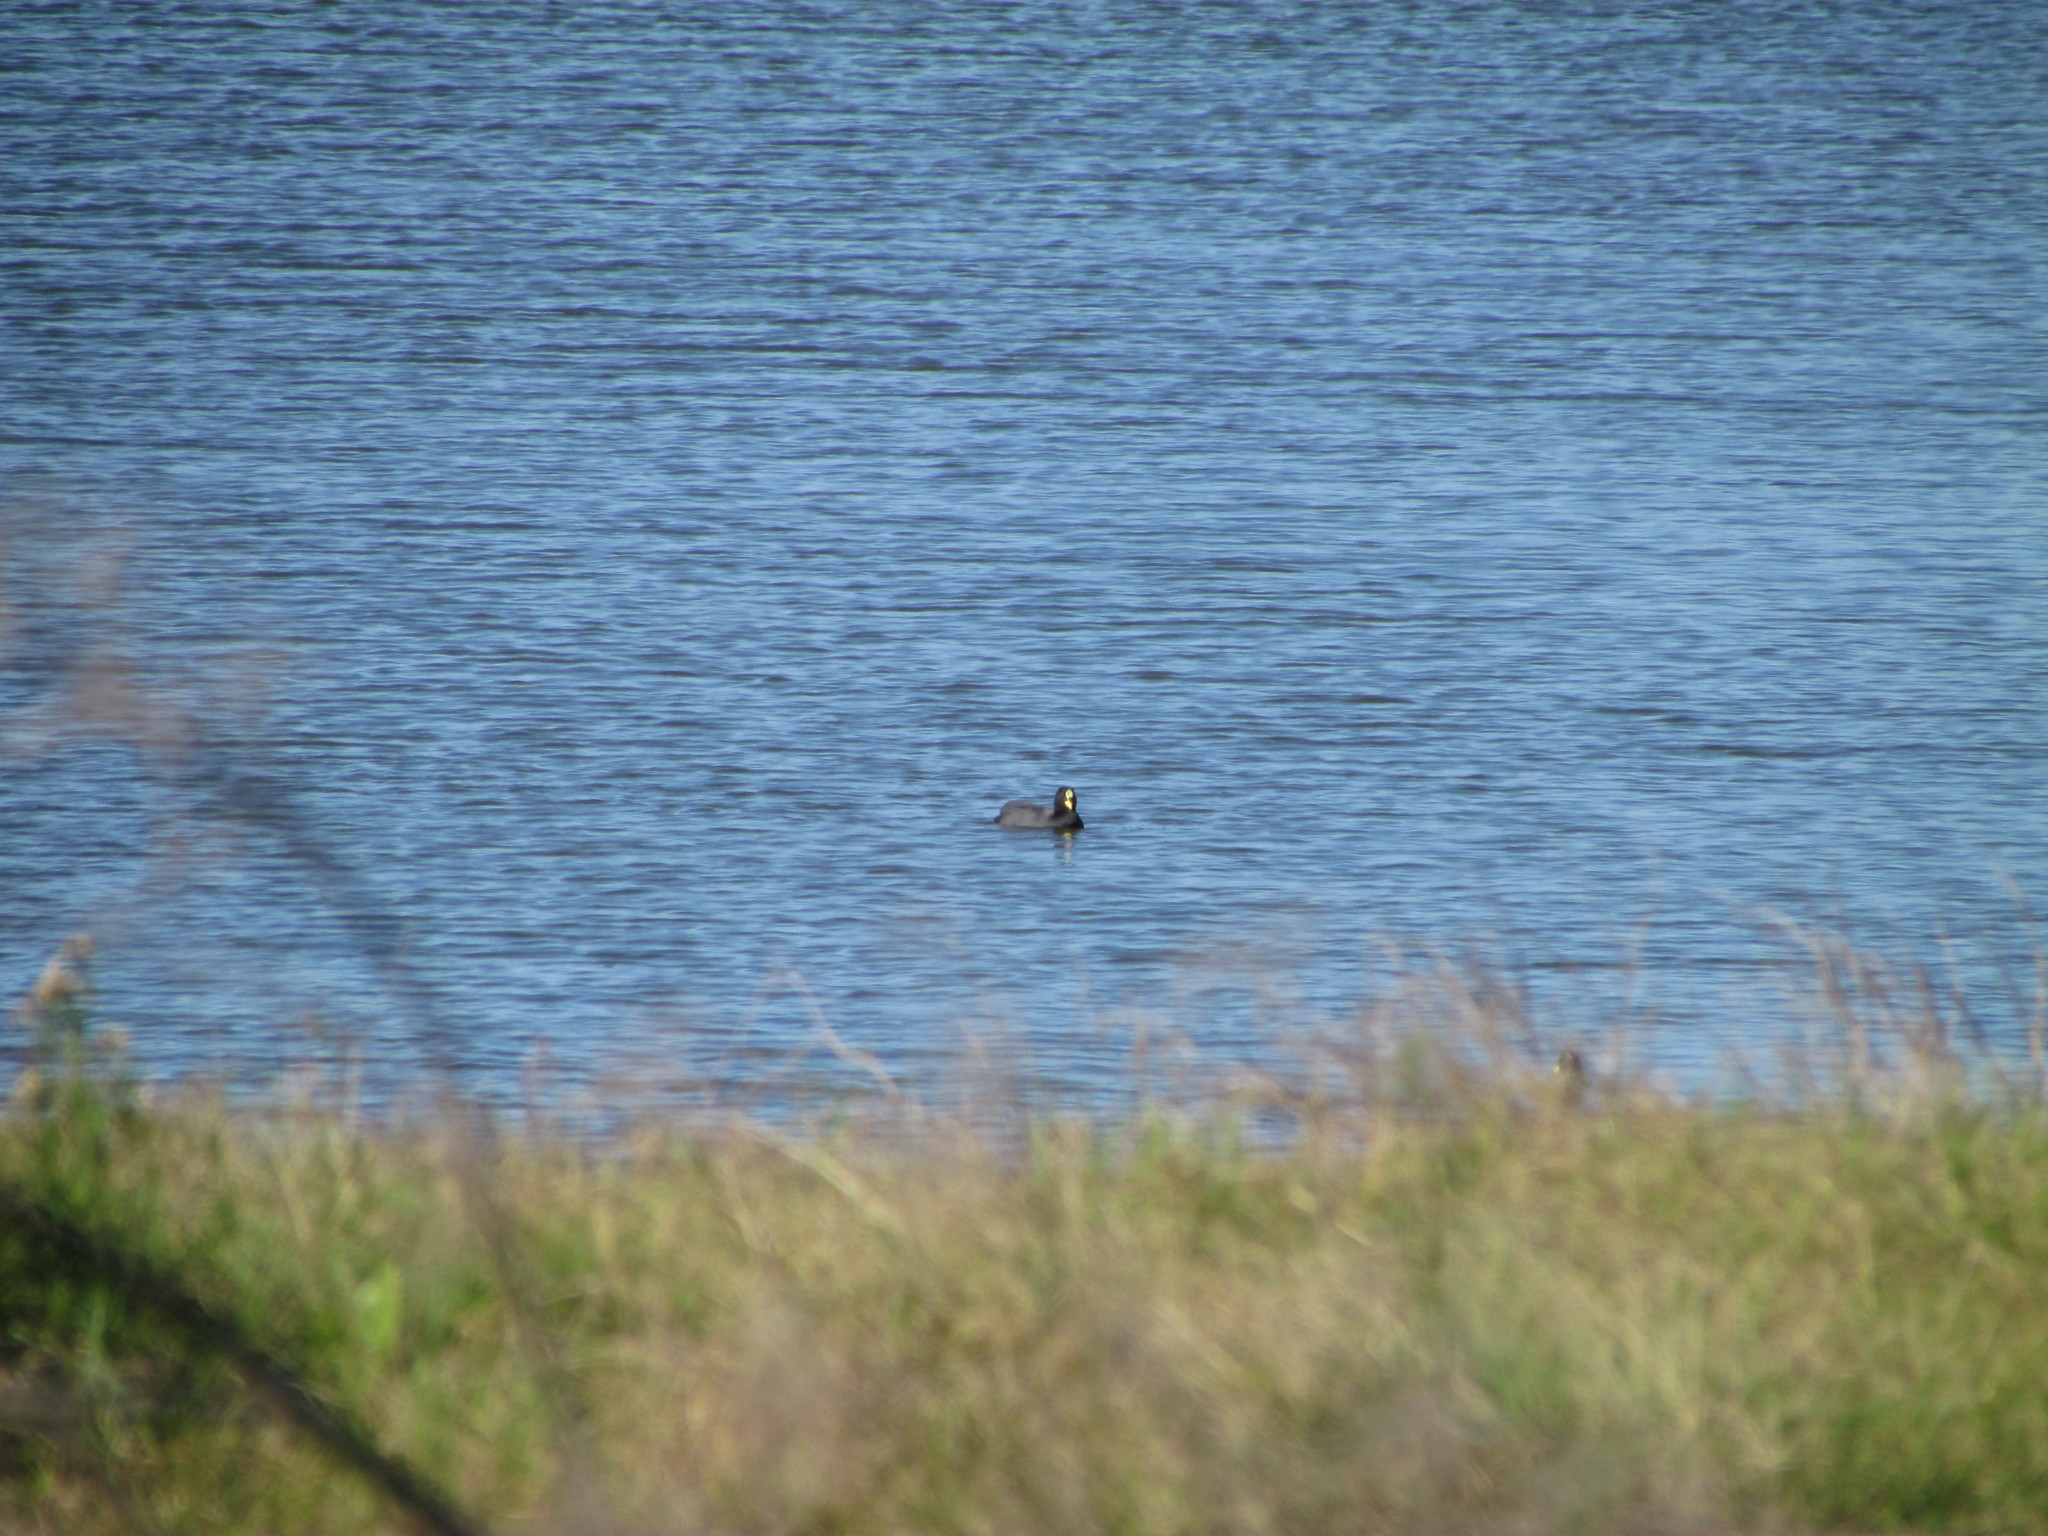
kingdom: Animalia
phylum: Chordata
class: Aves
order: Gruiformes
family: Rallidae
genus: Fulica
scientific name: Fulica armillata
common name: Red-gartered coot
